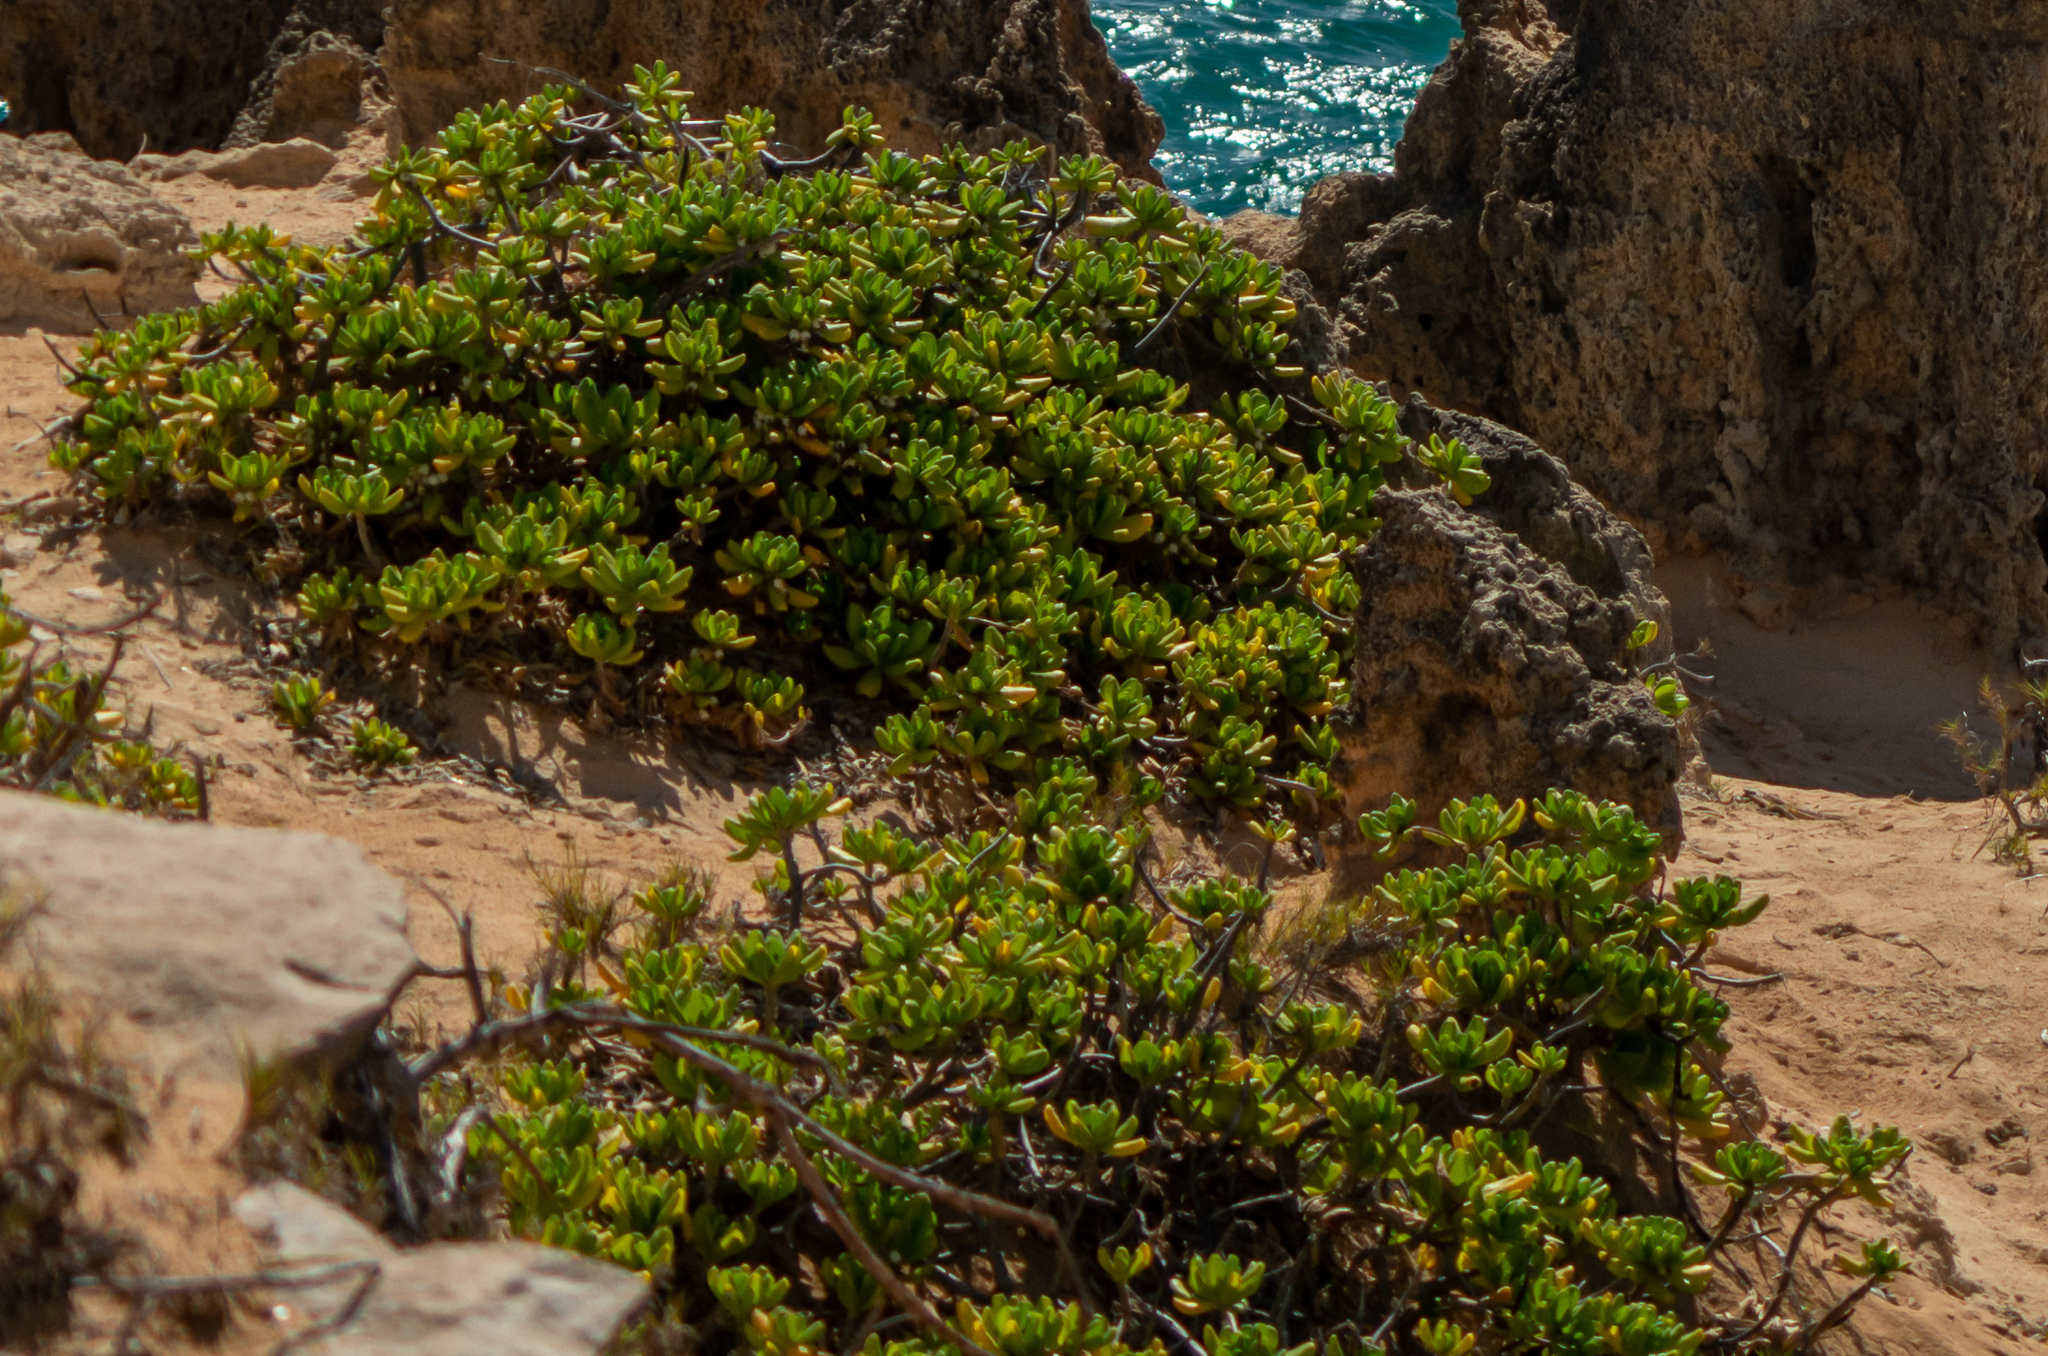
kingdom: Plantae
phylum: Tracheophyta
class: Magnoliopsida
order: Asterales
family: Goodeniaceae
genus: Scaevola
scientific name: Scaevola taccada
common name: Sea lettucetree
